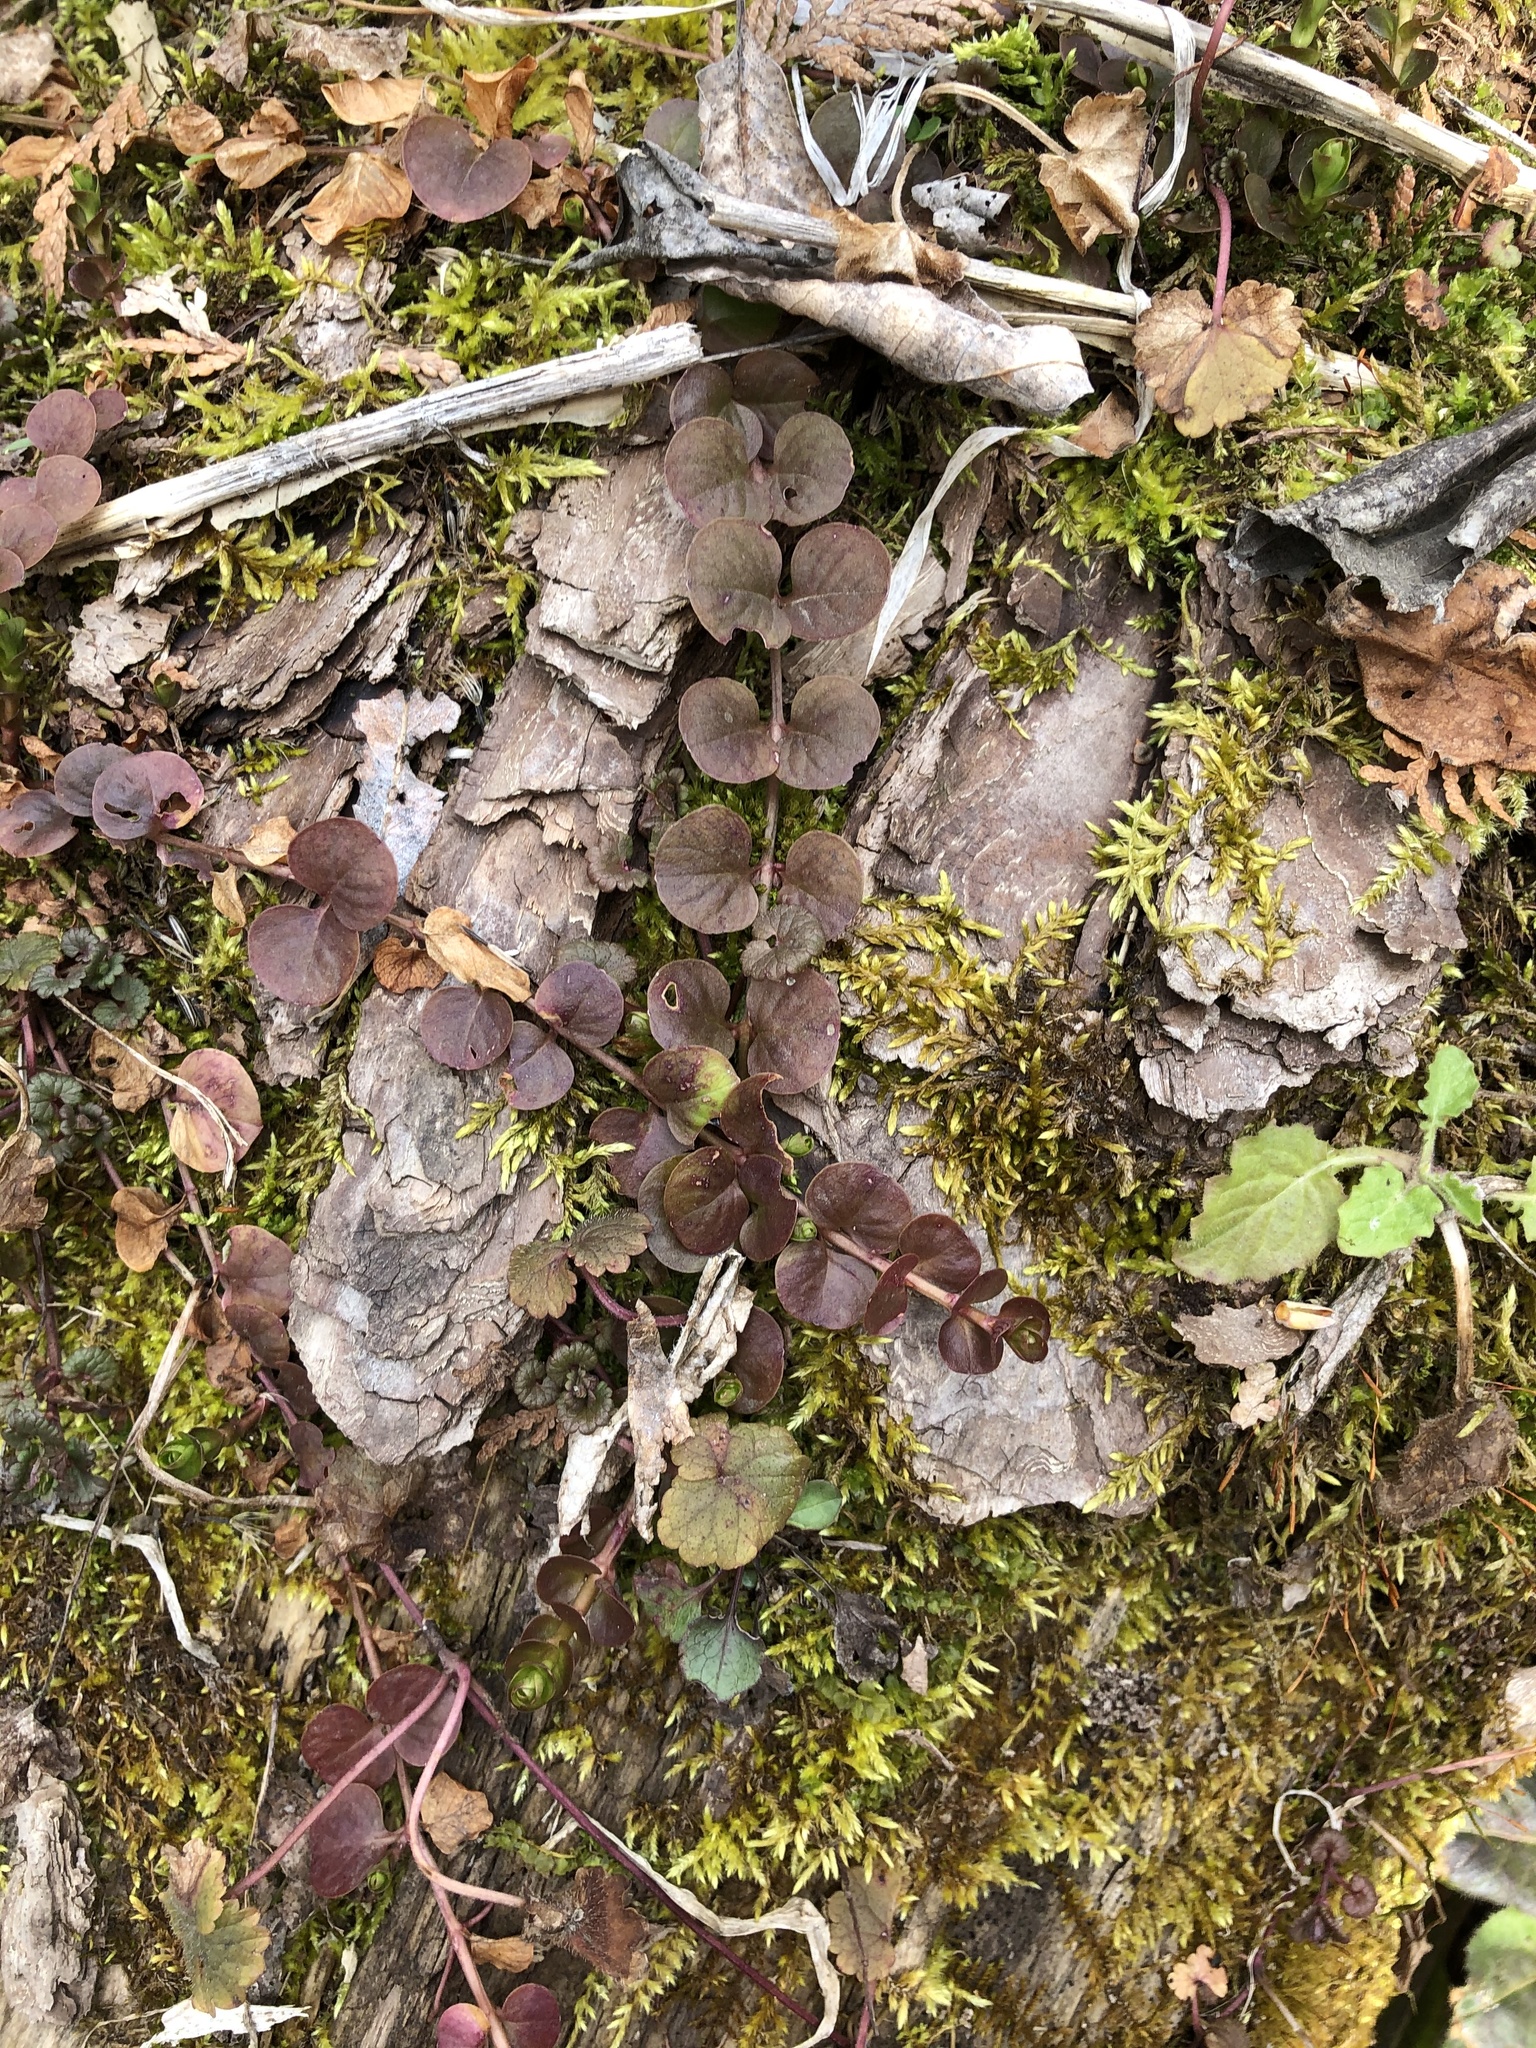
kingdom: Plantae
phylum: Tracheophyta
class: Magnoliopsida
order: Ericales
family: Primulaceae
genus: Lysimachia
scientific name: Lysimachia nummularia
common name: Moneywort
